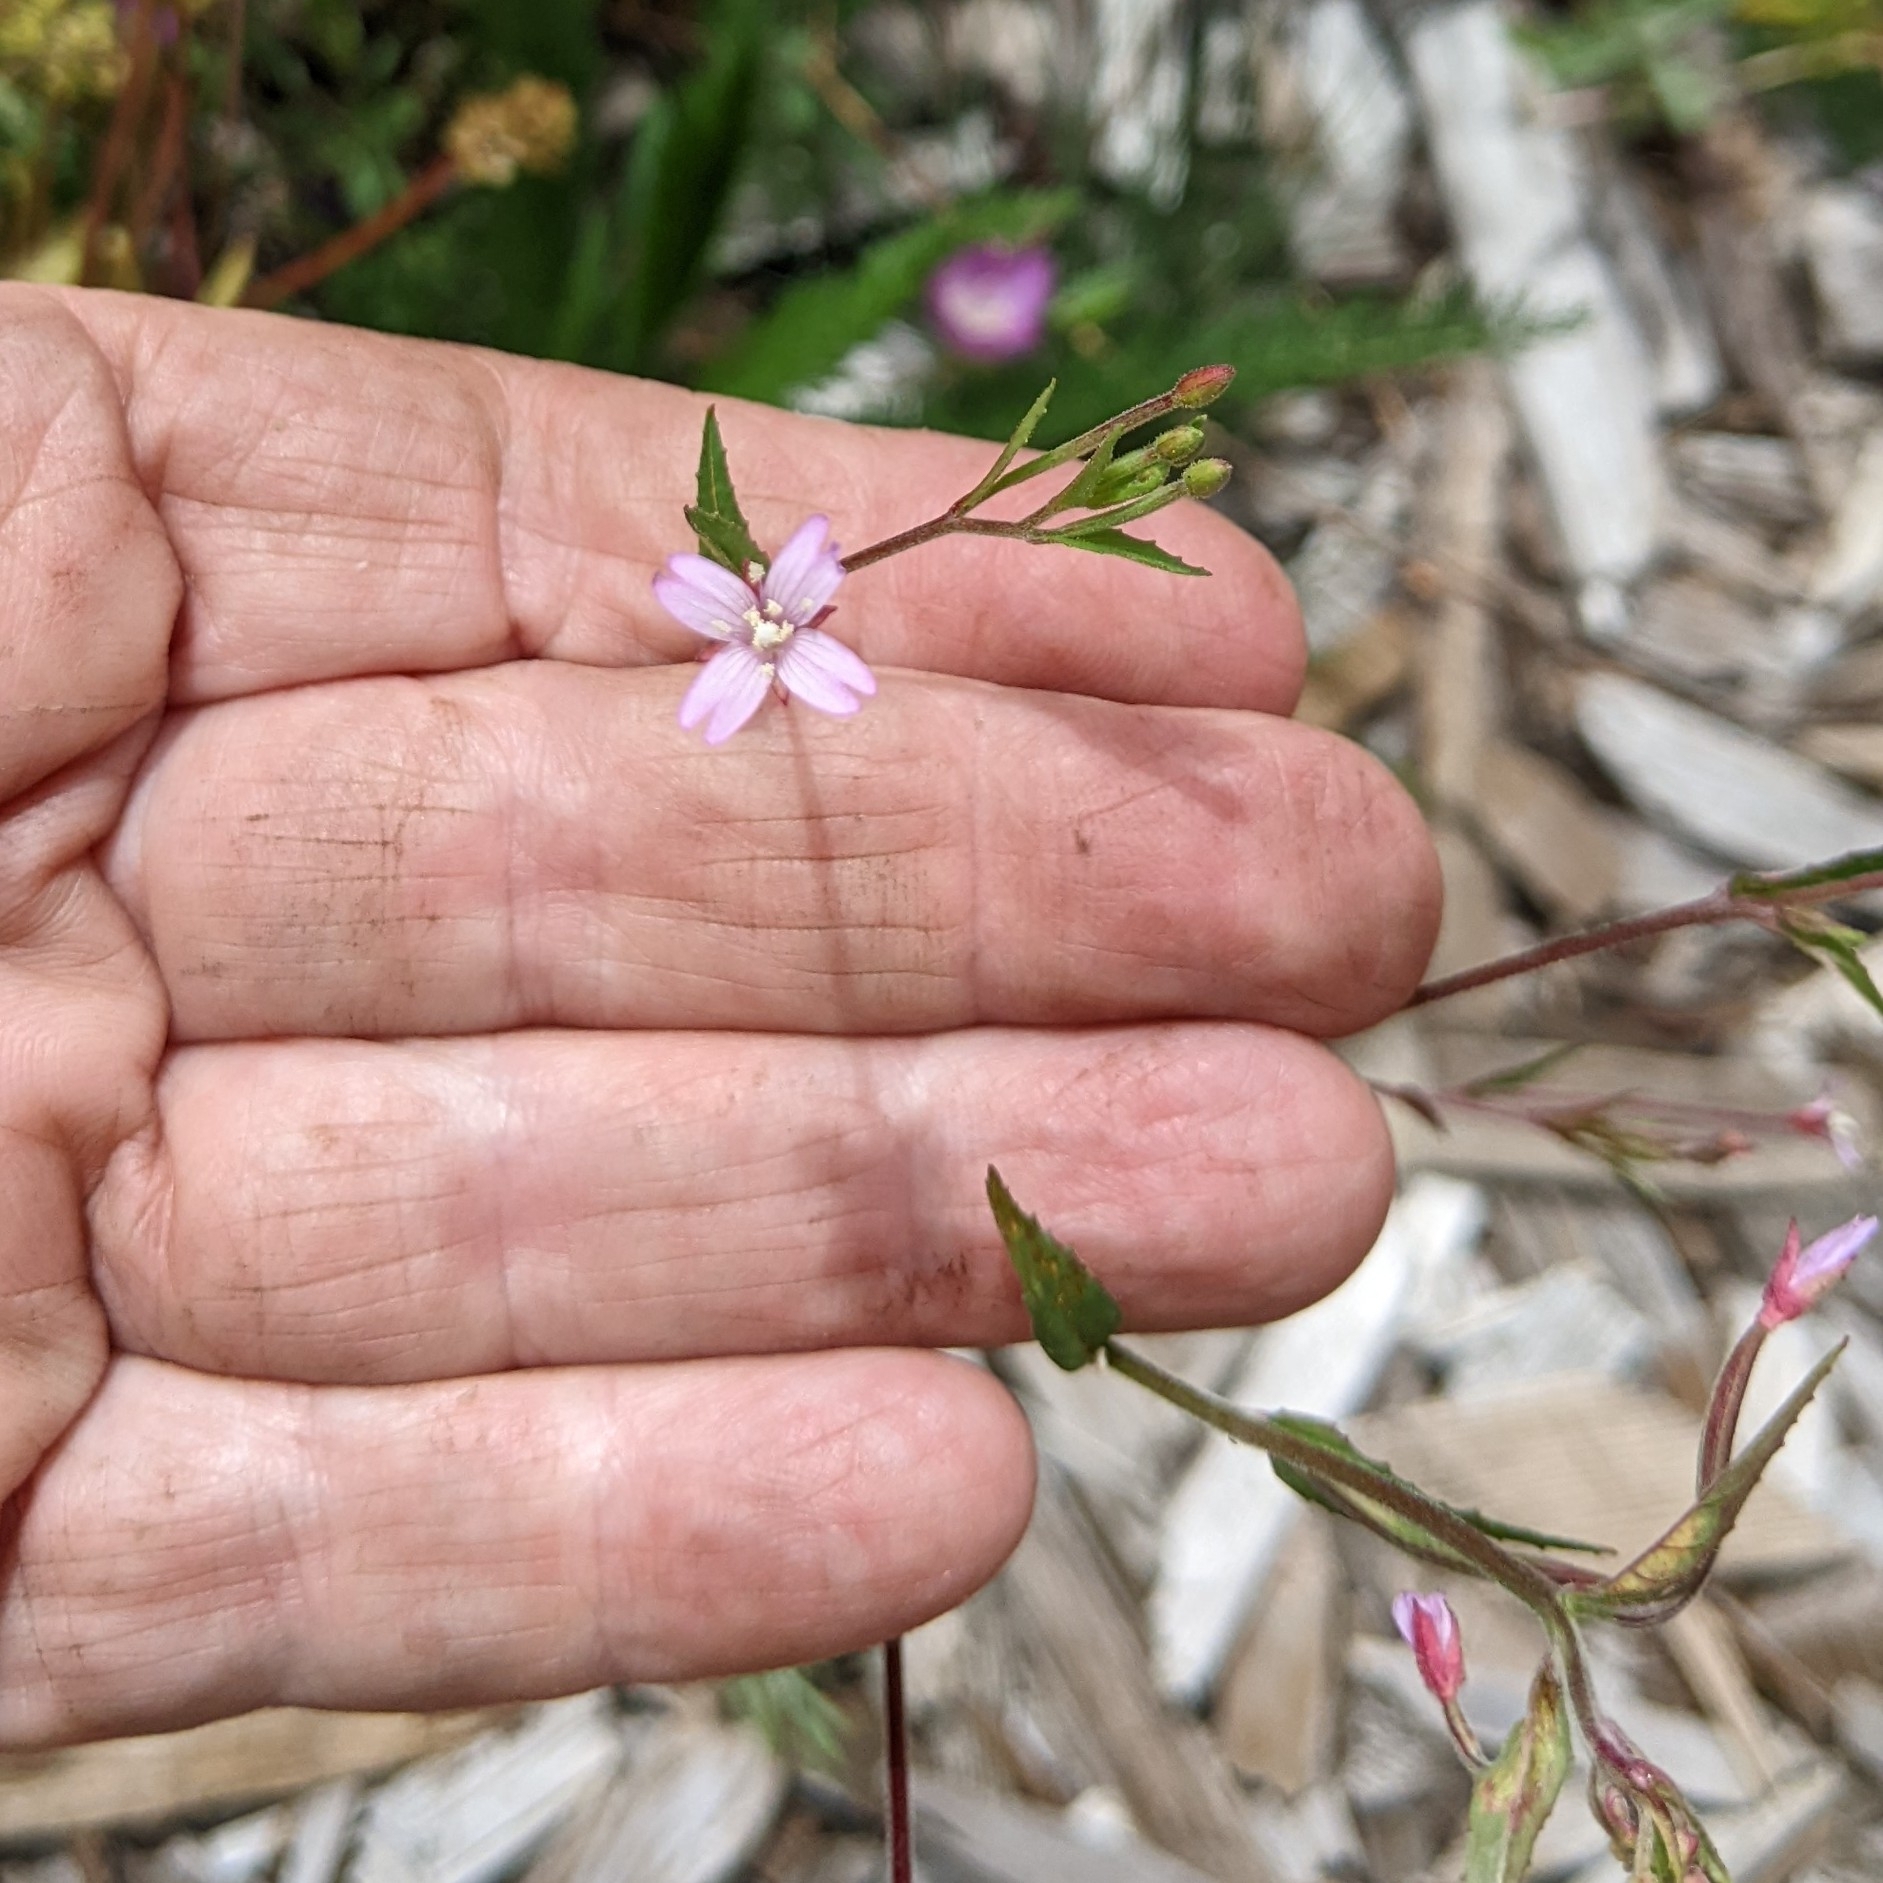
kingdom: Plantae
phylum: Tracheophyta
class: Magnoliopsida
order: Myrtales
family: Onagraceae
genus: Epilobium
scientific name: Epilobium ciliatum
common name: American willowherb
